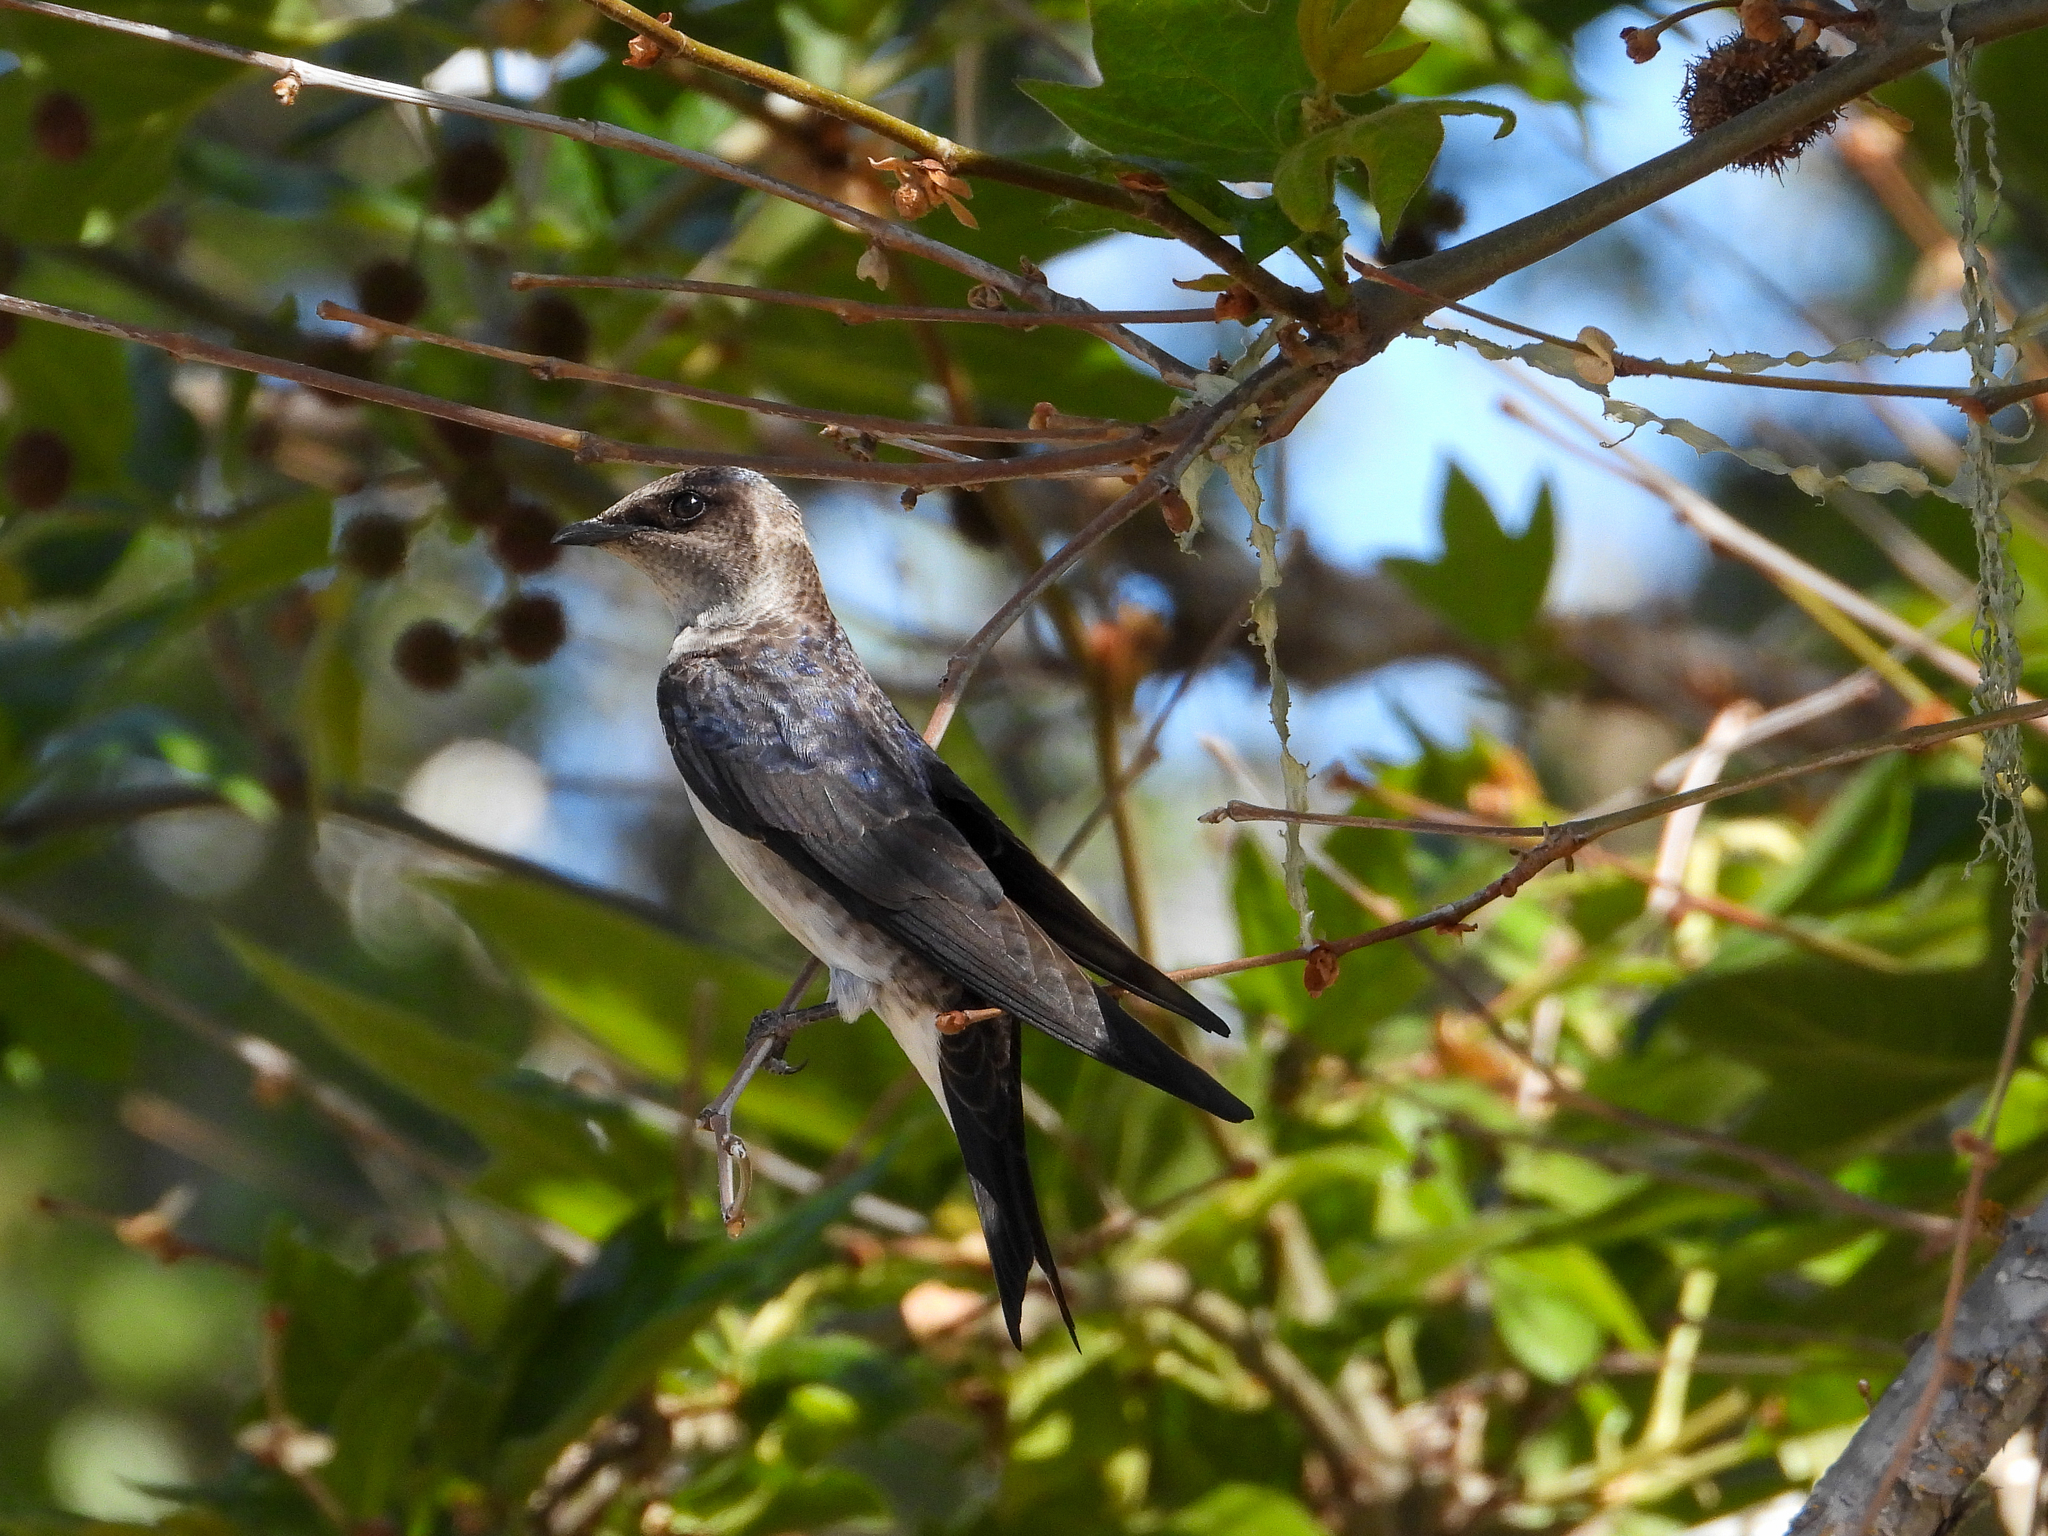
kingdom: Animalia
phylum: Chordata
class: Aves
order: Passeriformes
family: Hirundinidae
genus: Progne
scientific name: Progne subis
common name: Purple martin
